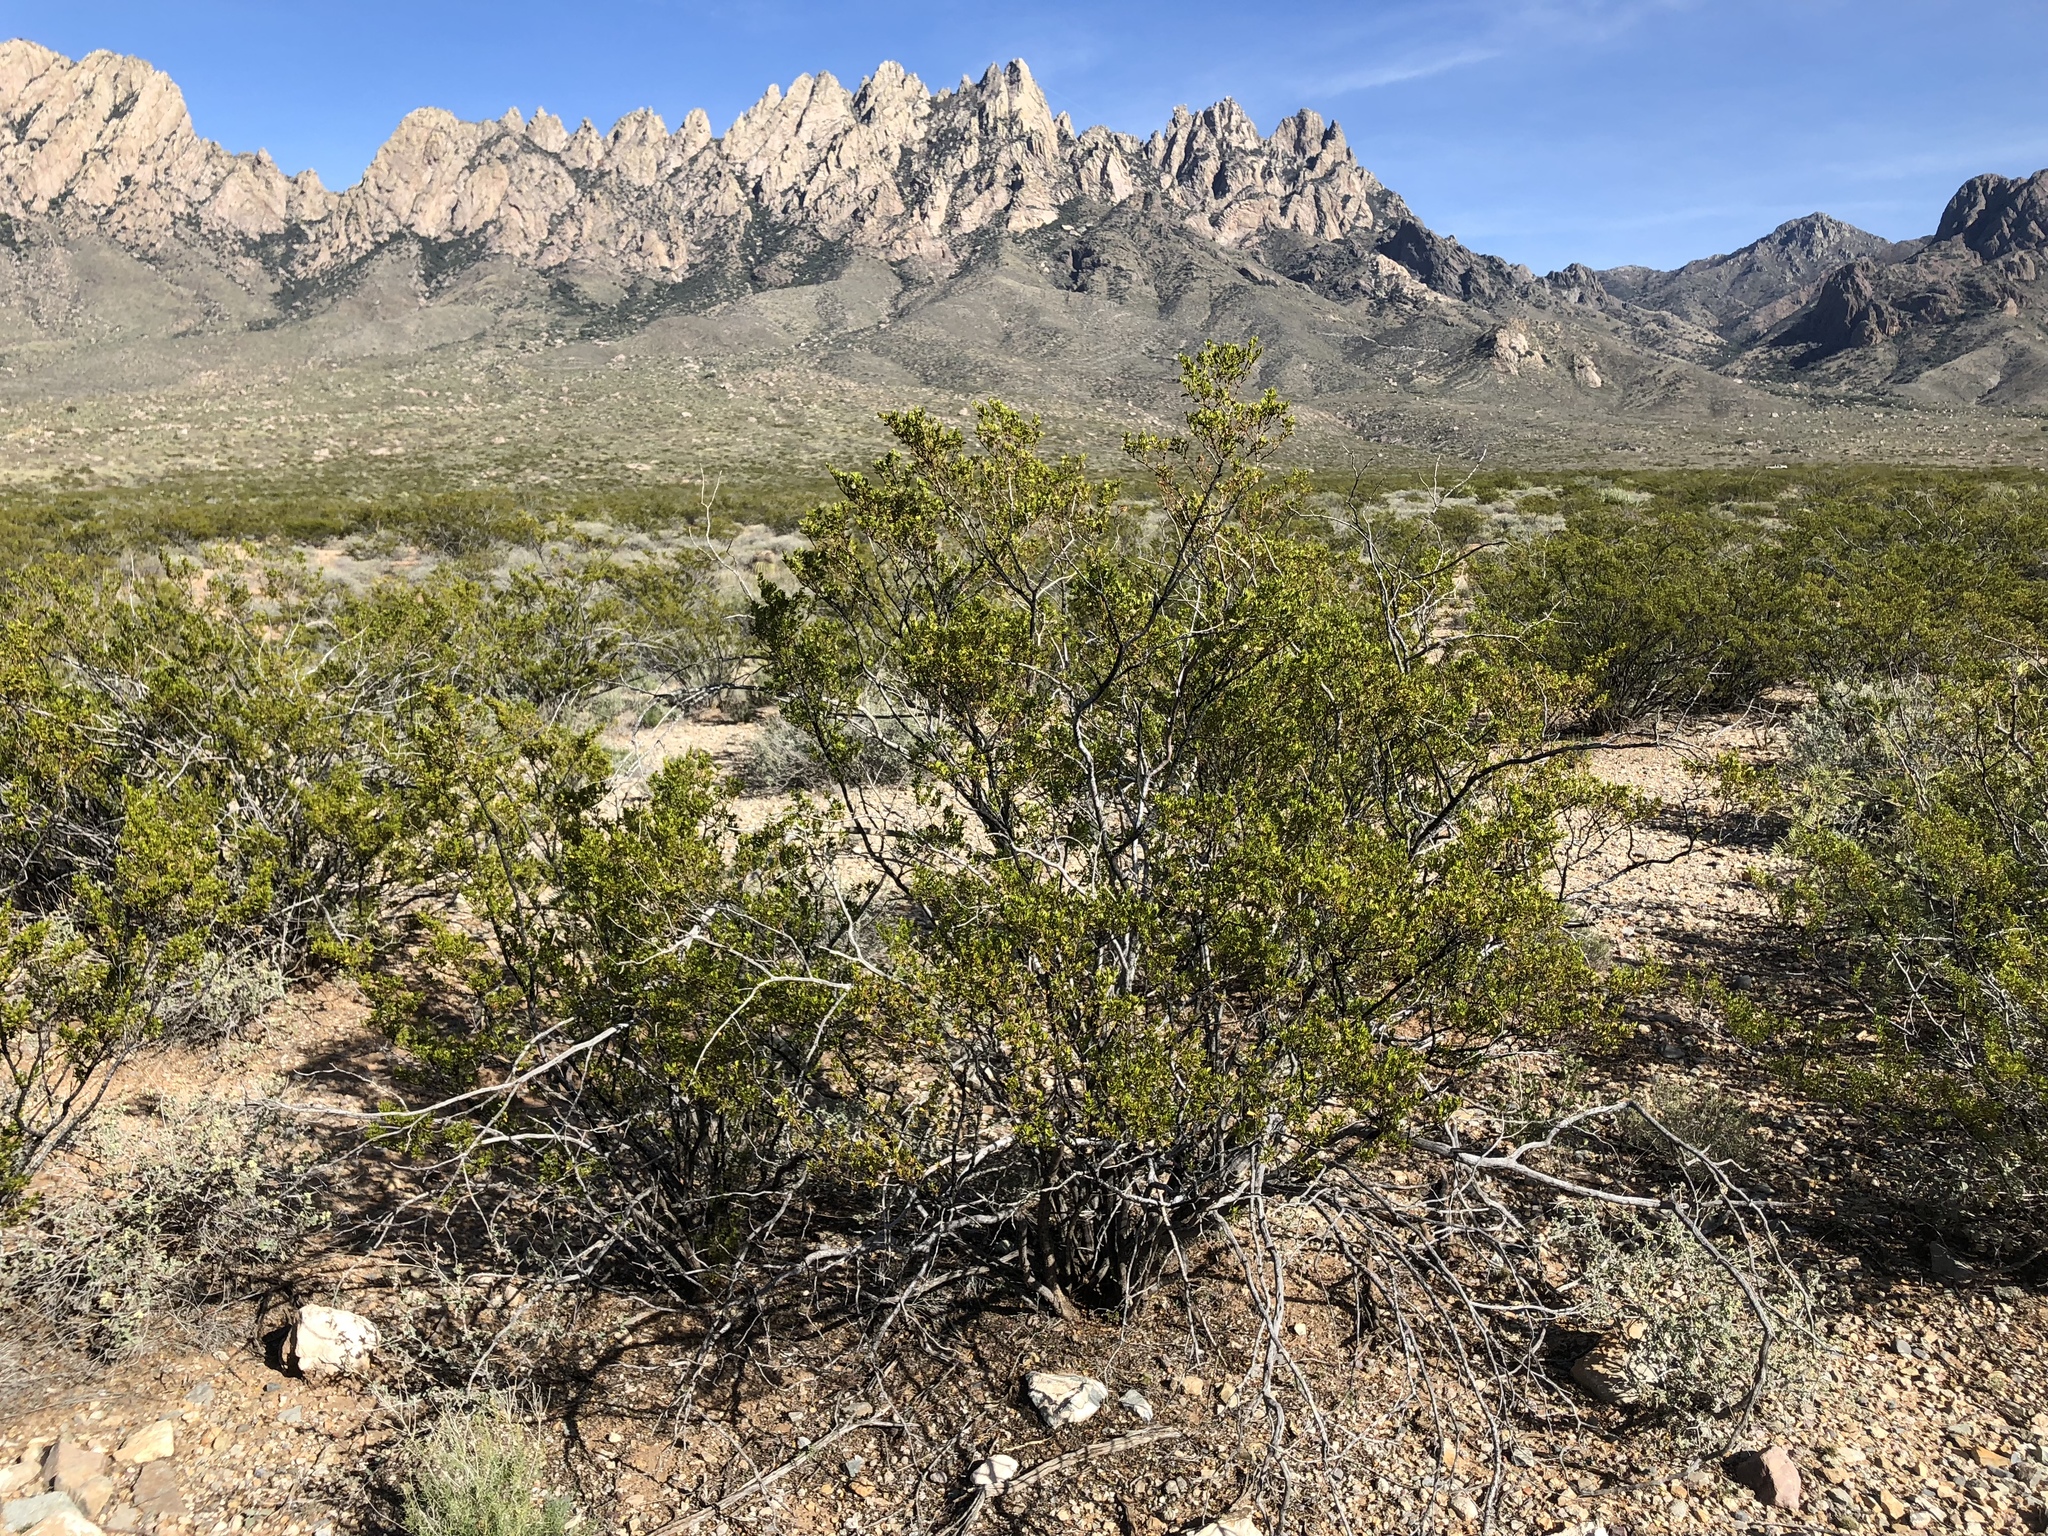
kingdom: Plantae
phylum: Tracheophyta
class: Magnoliopsida
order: Zygophyllales
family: Zygophyllaceae
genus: Larrea
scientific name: Larrea tridentata
